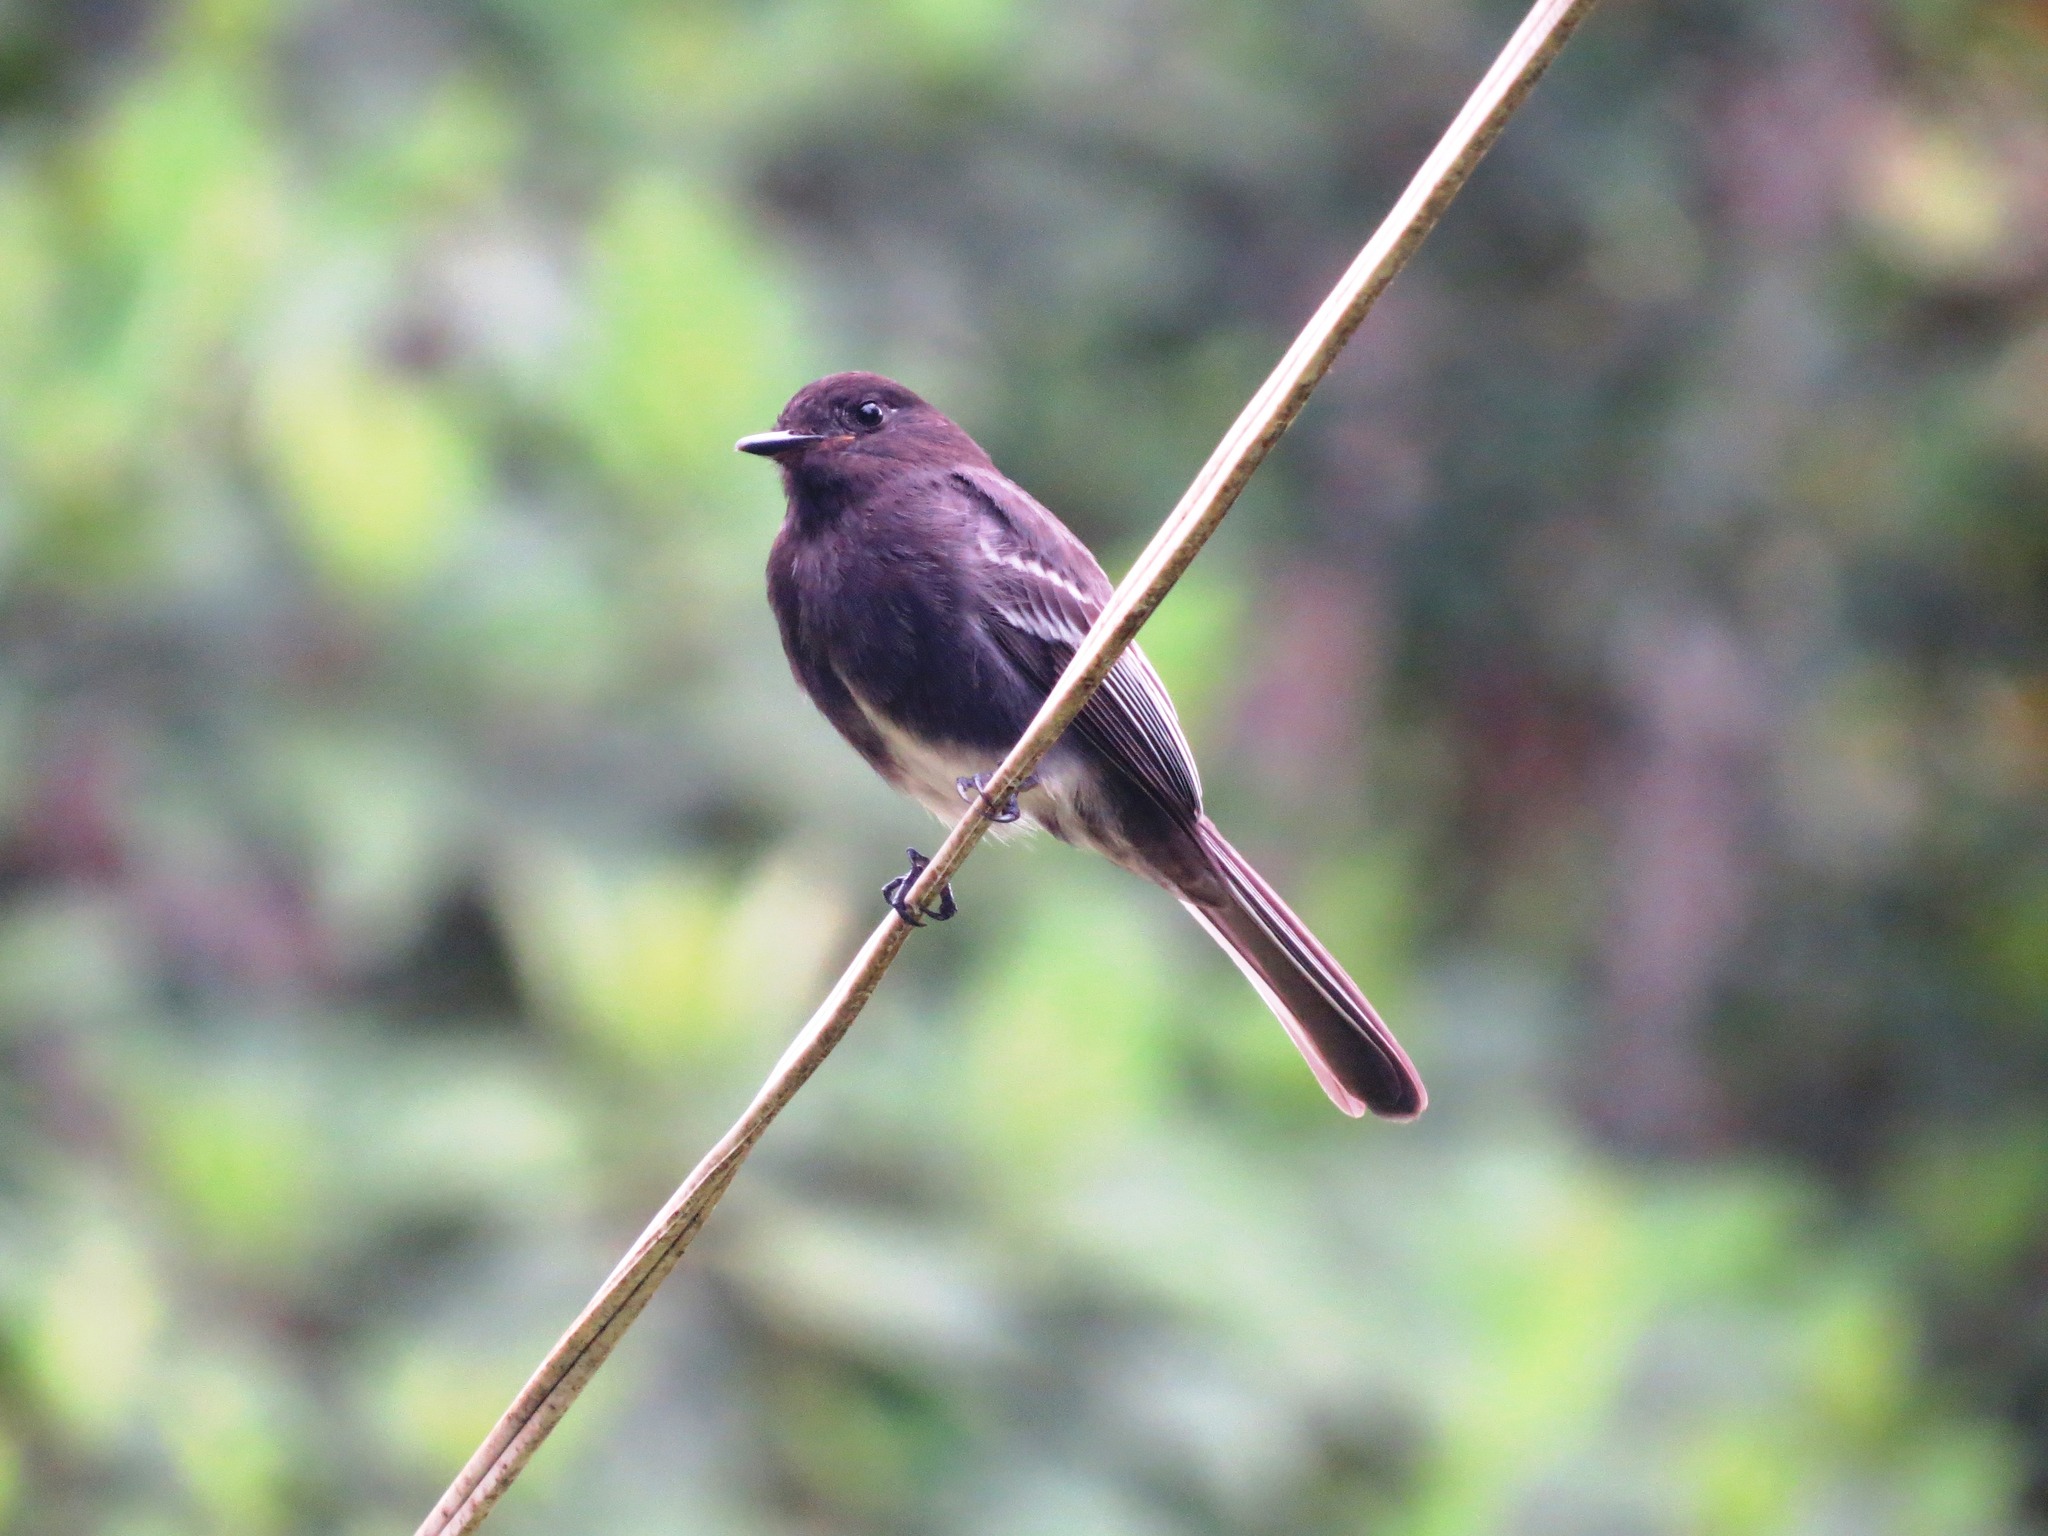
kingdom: Animalia
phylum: Chordata
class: Aves
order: Passeriformes
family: Tyrannidae
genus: Sayornis
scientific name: Sayornis nigricans
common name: Black phoebe
